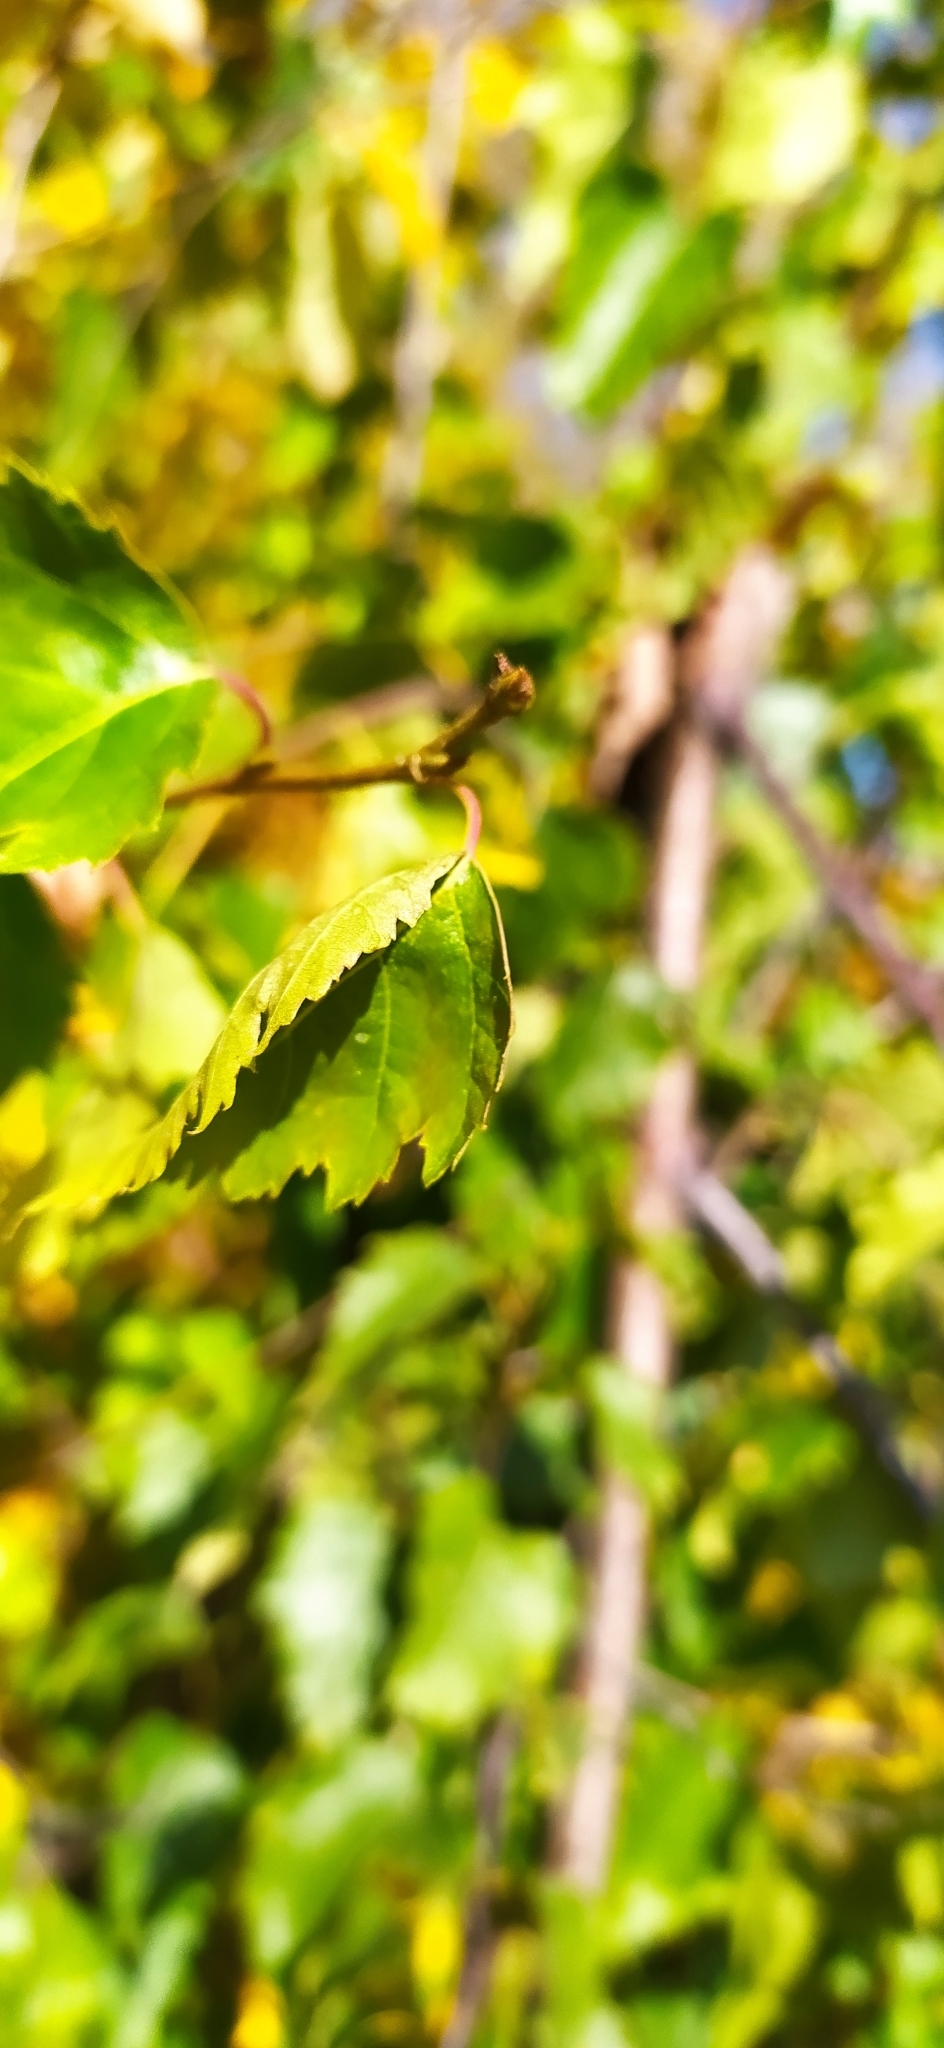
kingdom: Plantae
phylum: Tracheophyta
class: Magnoliopsida
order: Fagales
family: Betulaceae
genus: Betula
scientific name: Betula pendula
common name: Silver birch
